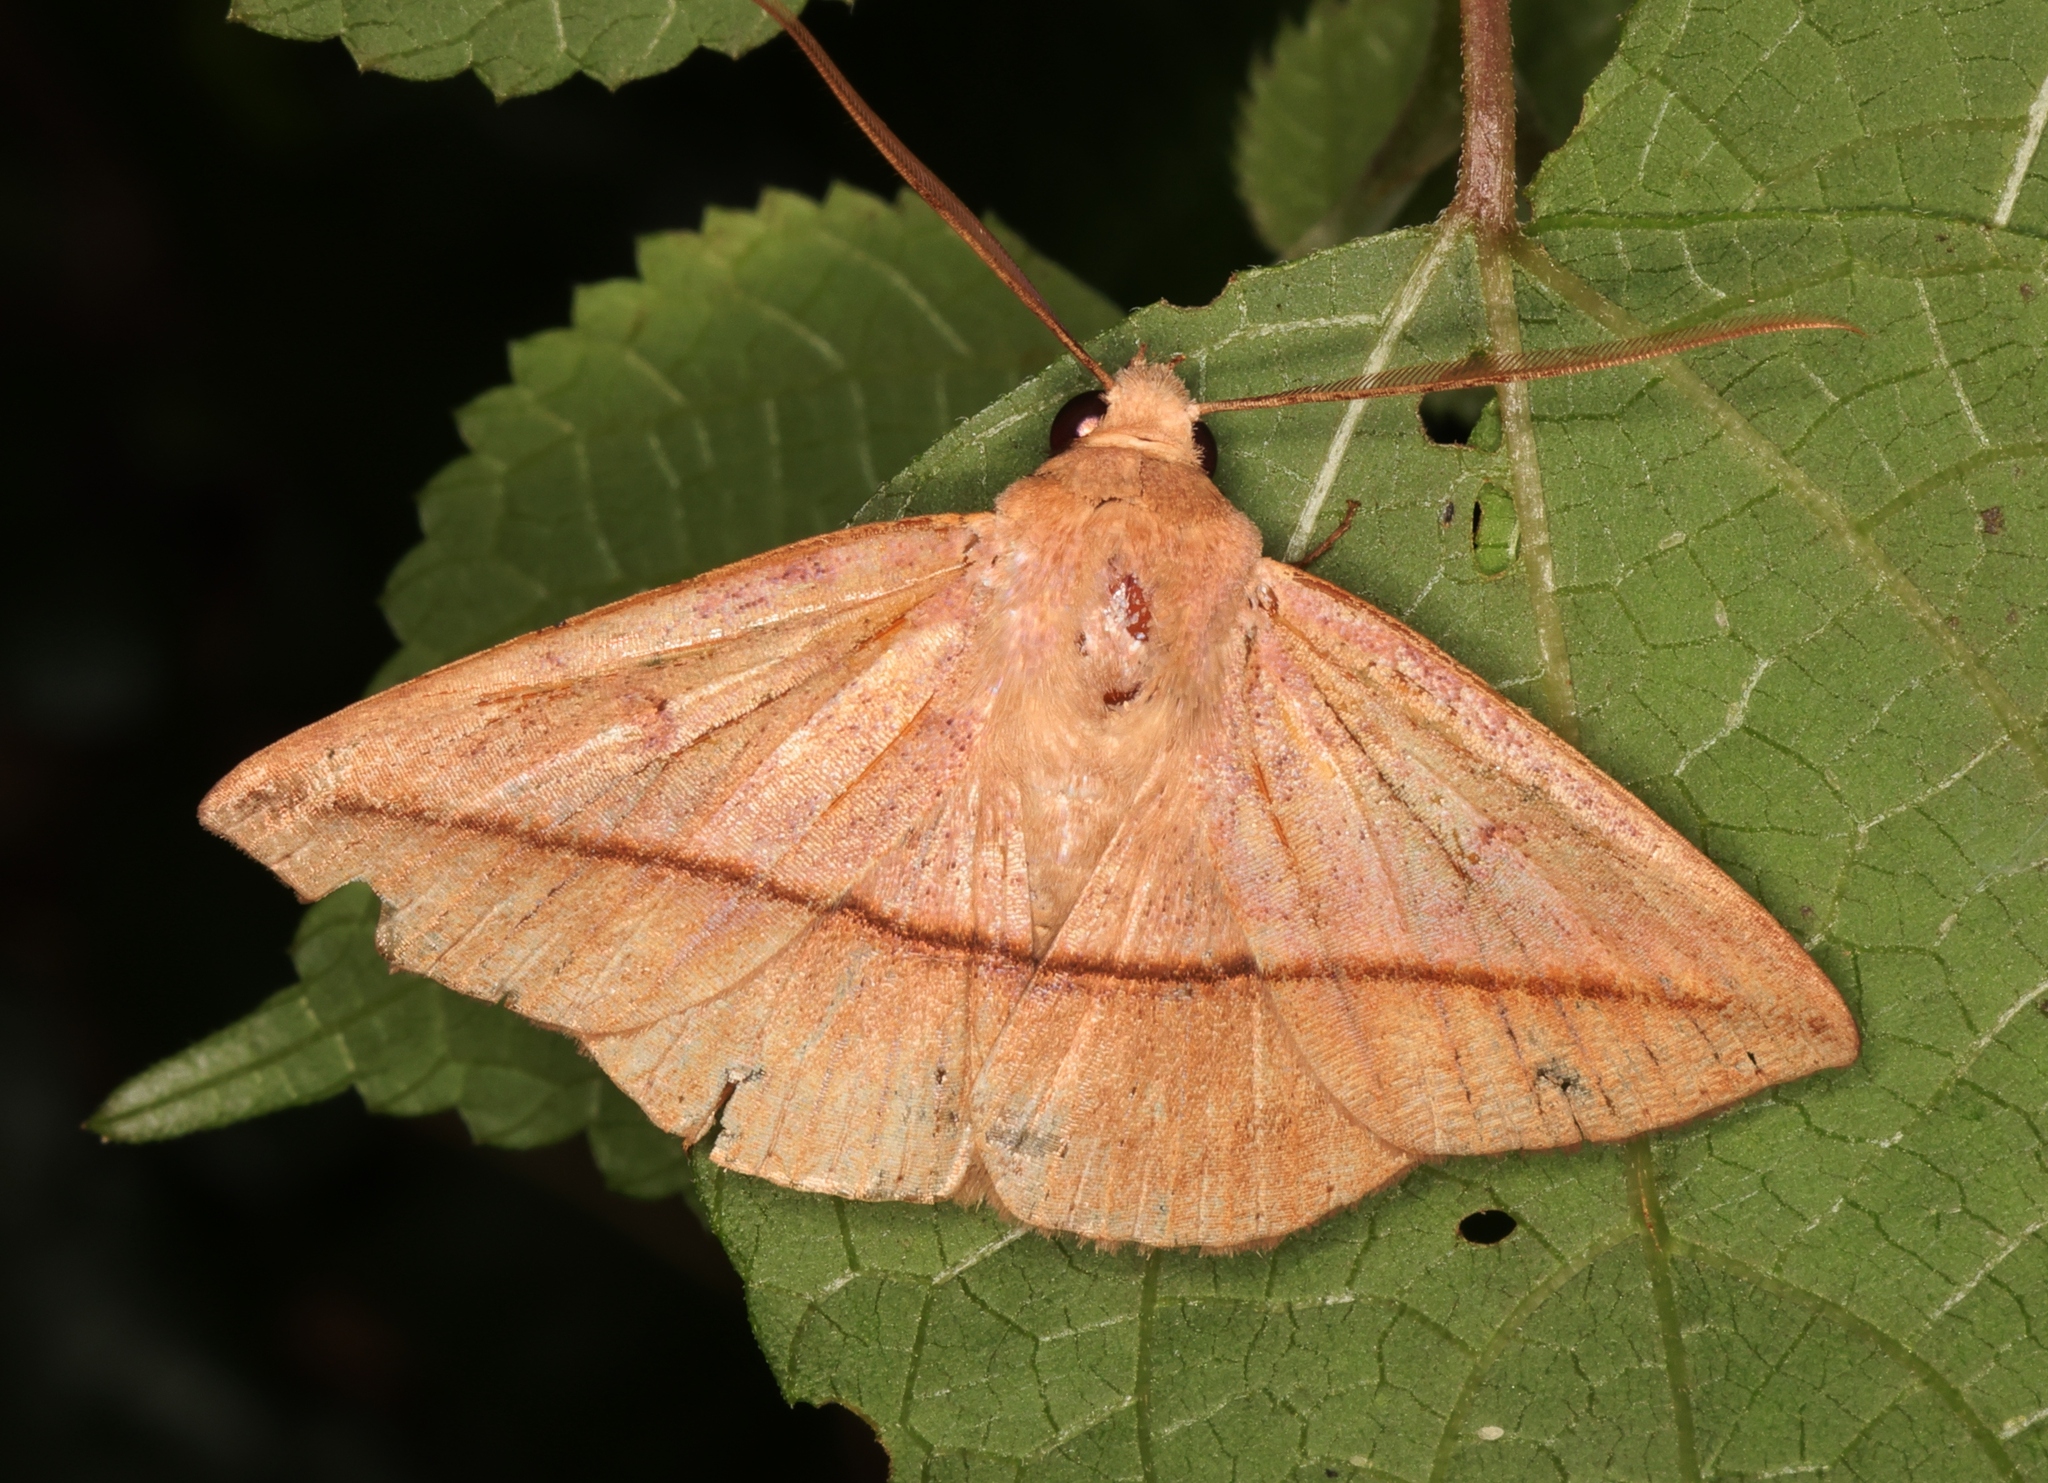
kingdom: Animalia
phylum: Arthropoda
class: Insecta
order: Lepidoptera
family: Erebidae
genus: Ugia
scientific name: Ugia purpurea
